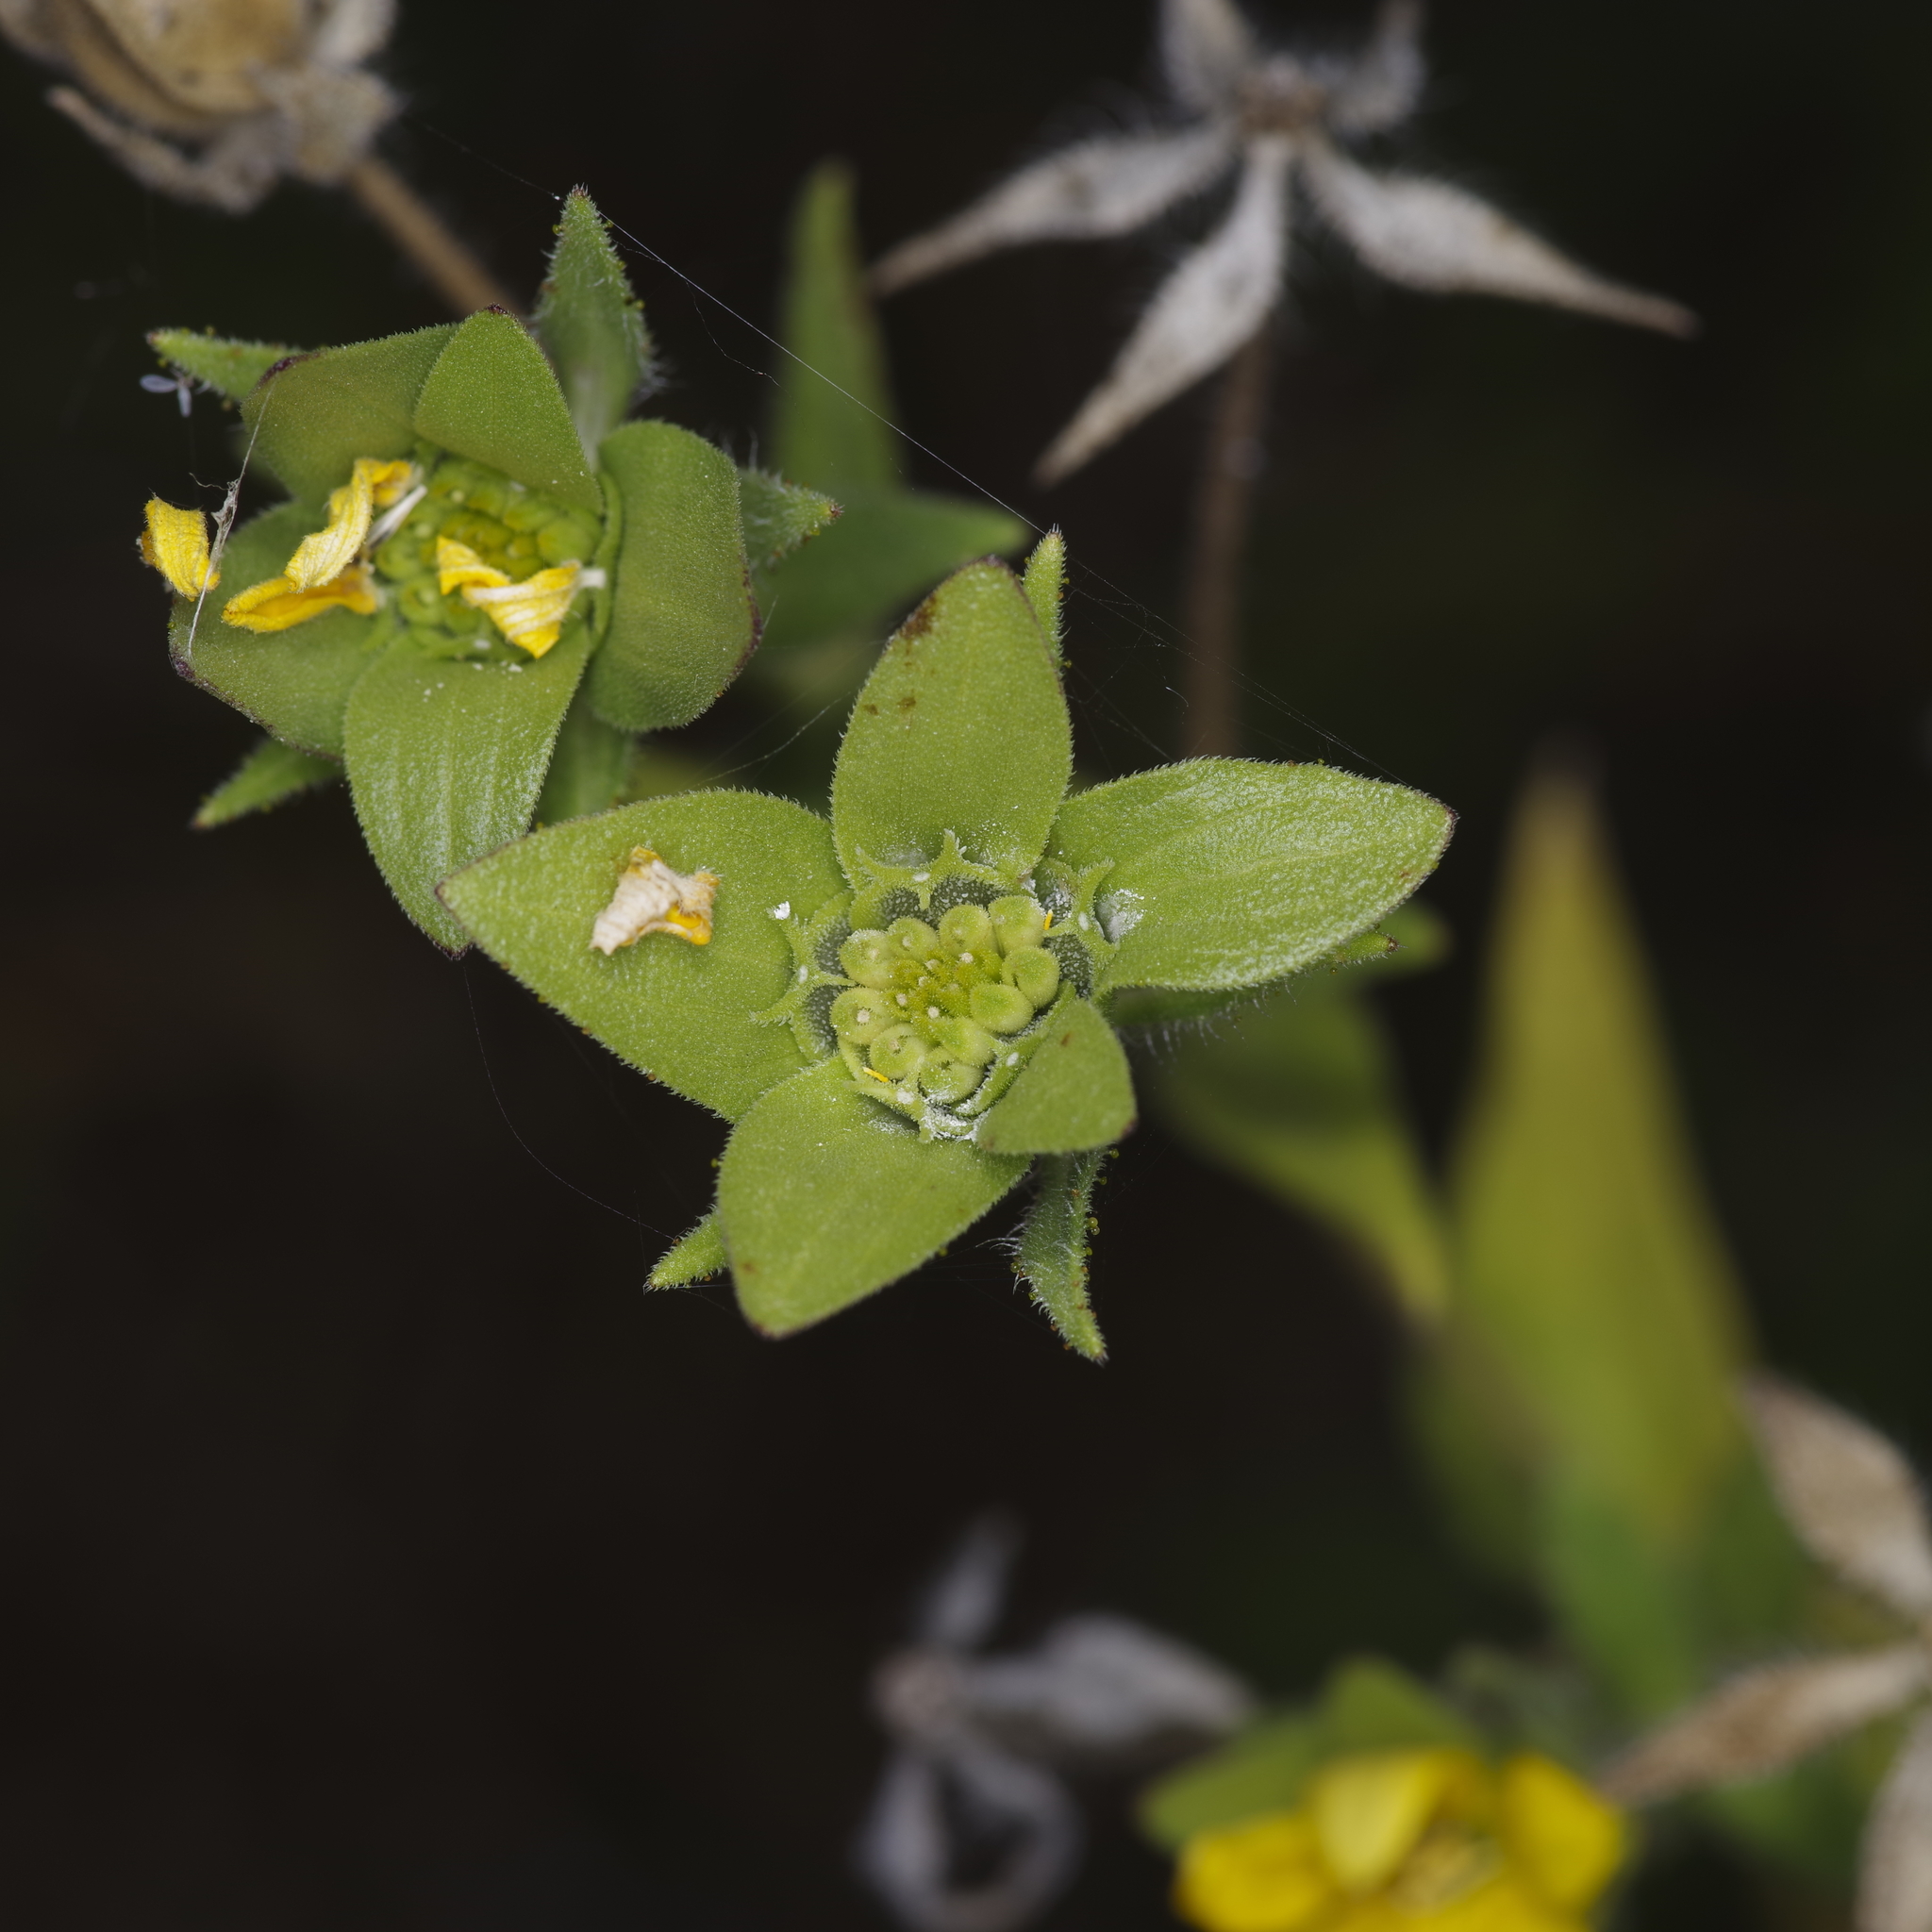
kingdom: Plantae
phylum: Tracheophyta
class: Magnoliopsida
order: Asterales
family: Asteraceae
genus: Lindheimera
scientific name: Lindheimera texana
